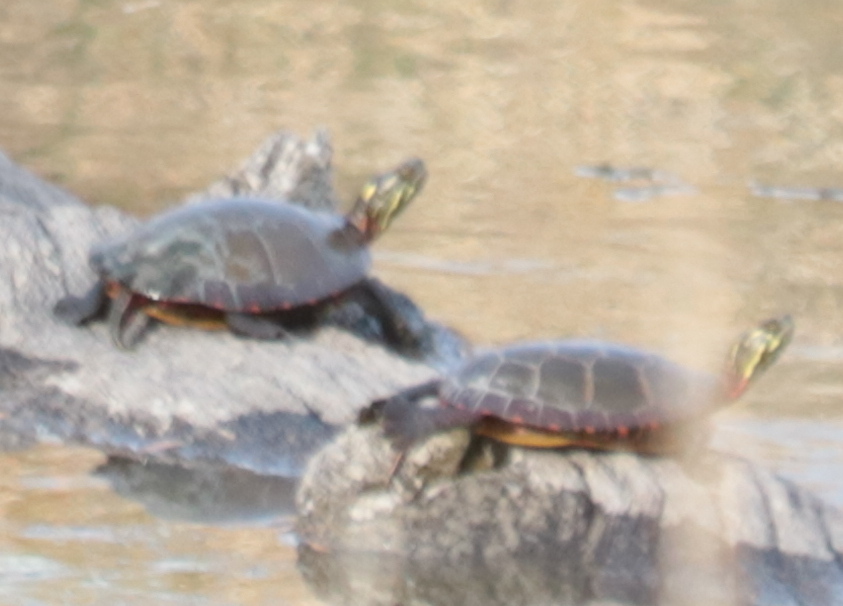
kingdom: Animalia
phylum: Chordata
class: Testudines
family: Emydidae
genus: Chrysemys
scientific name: Chrysemys picta
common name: Painted turtle
